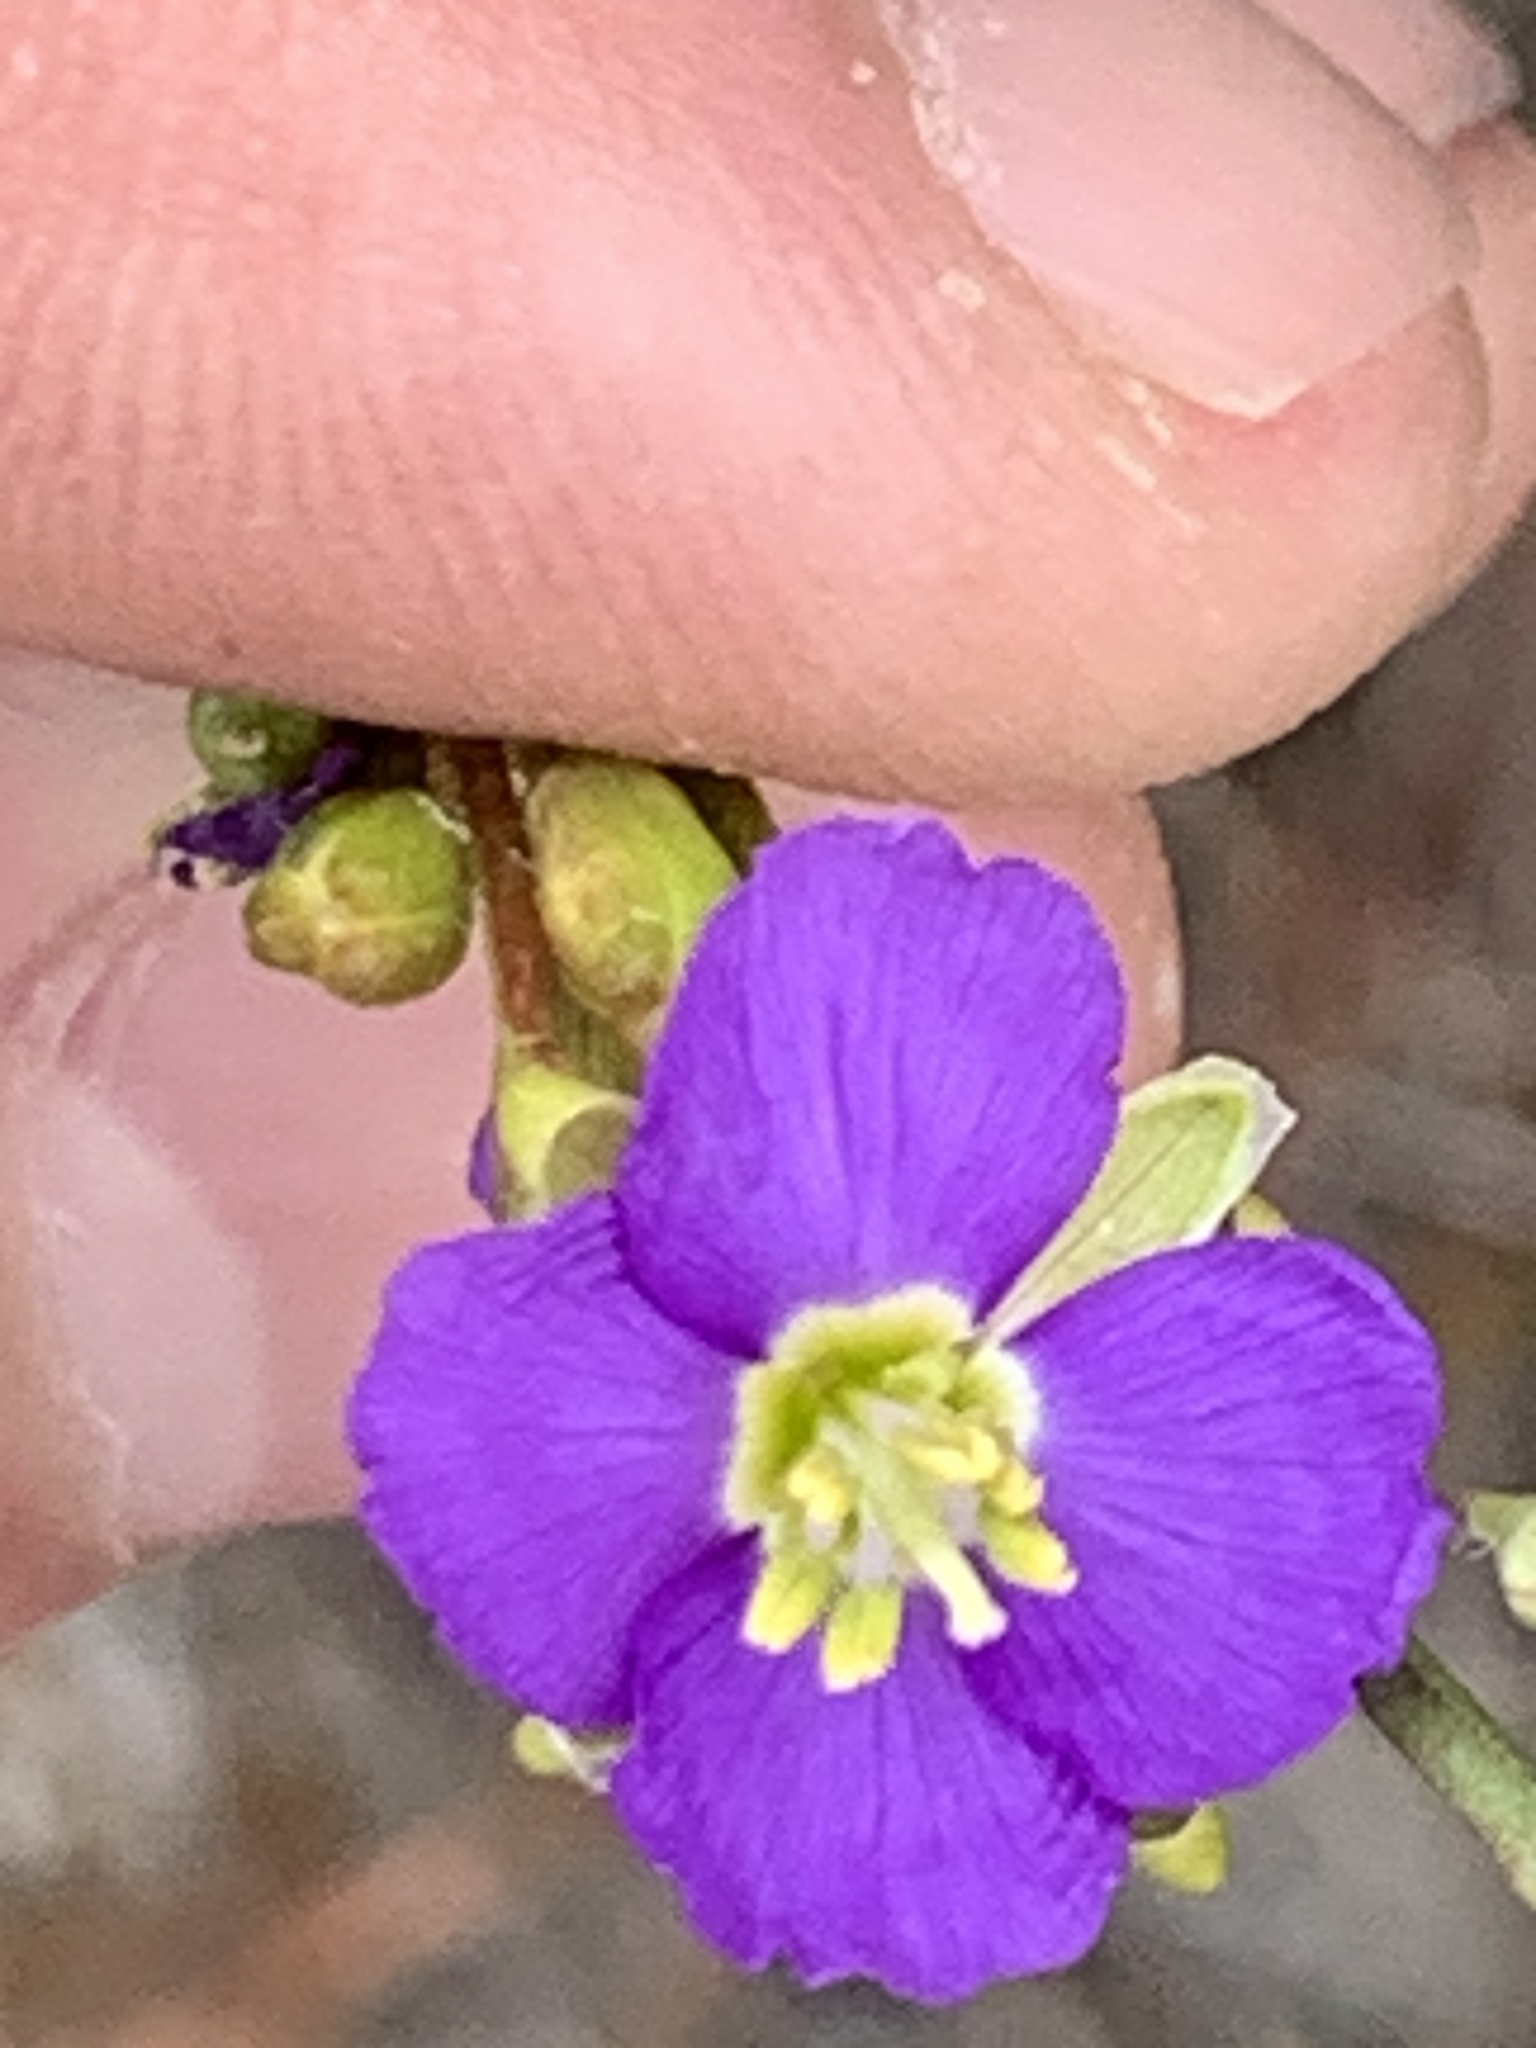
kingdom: Plantae
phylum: Tracheophyta
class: Magnoliopsida
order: Brassicales
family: Brassicaceae
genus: Heliophila
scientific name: Heliophila africana
